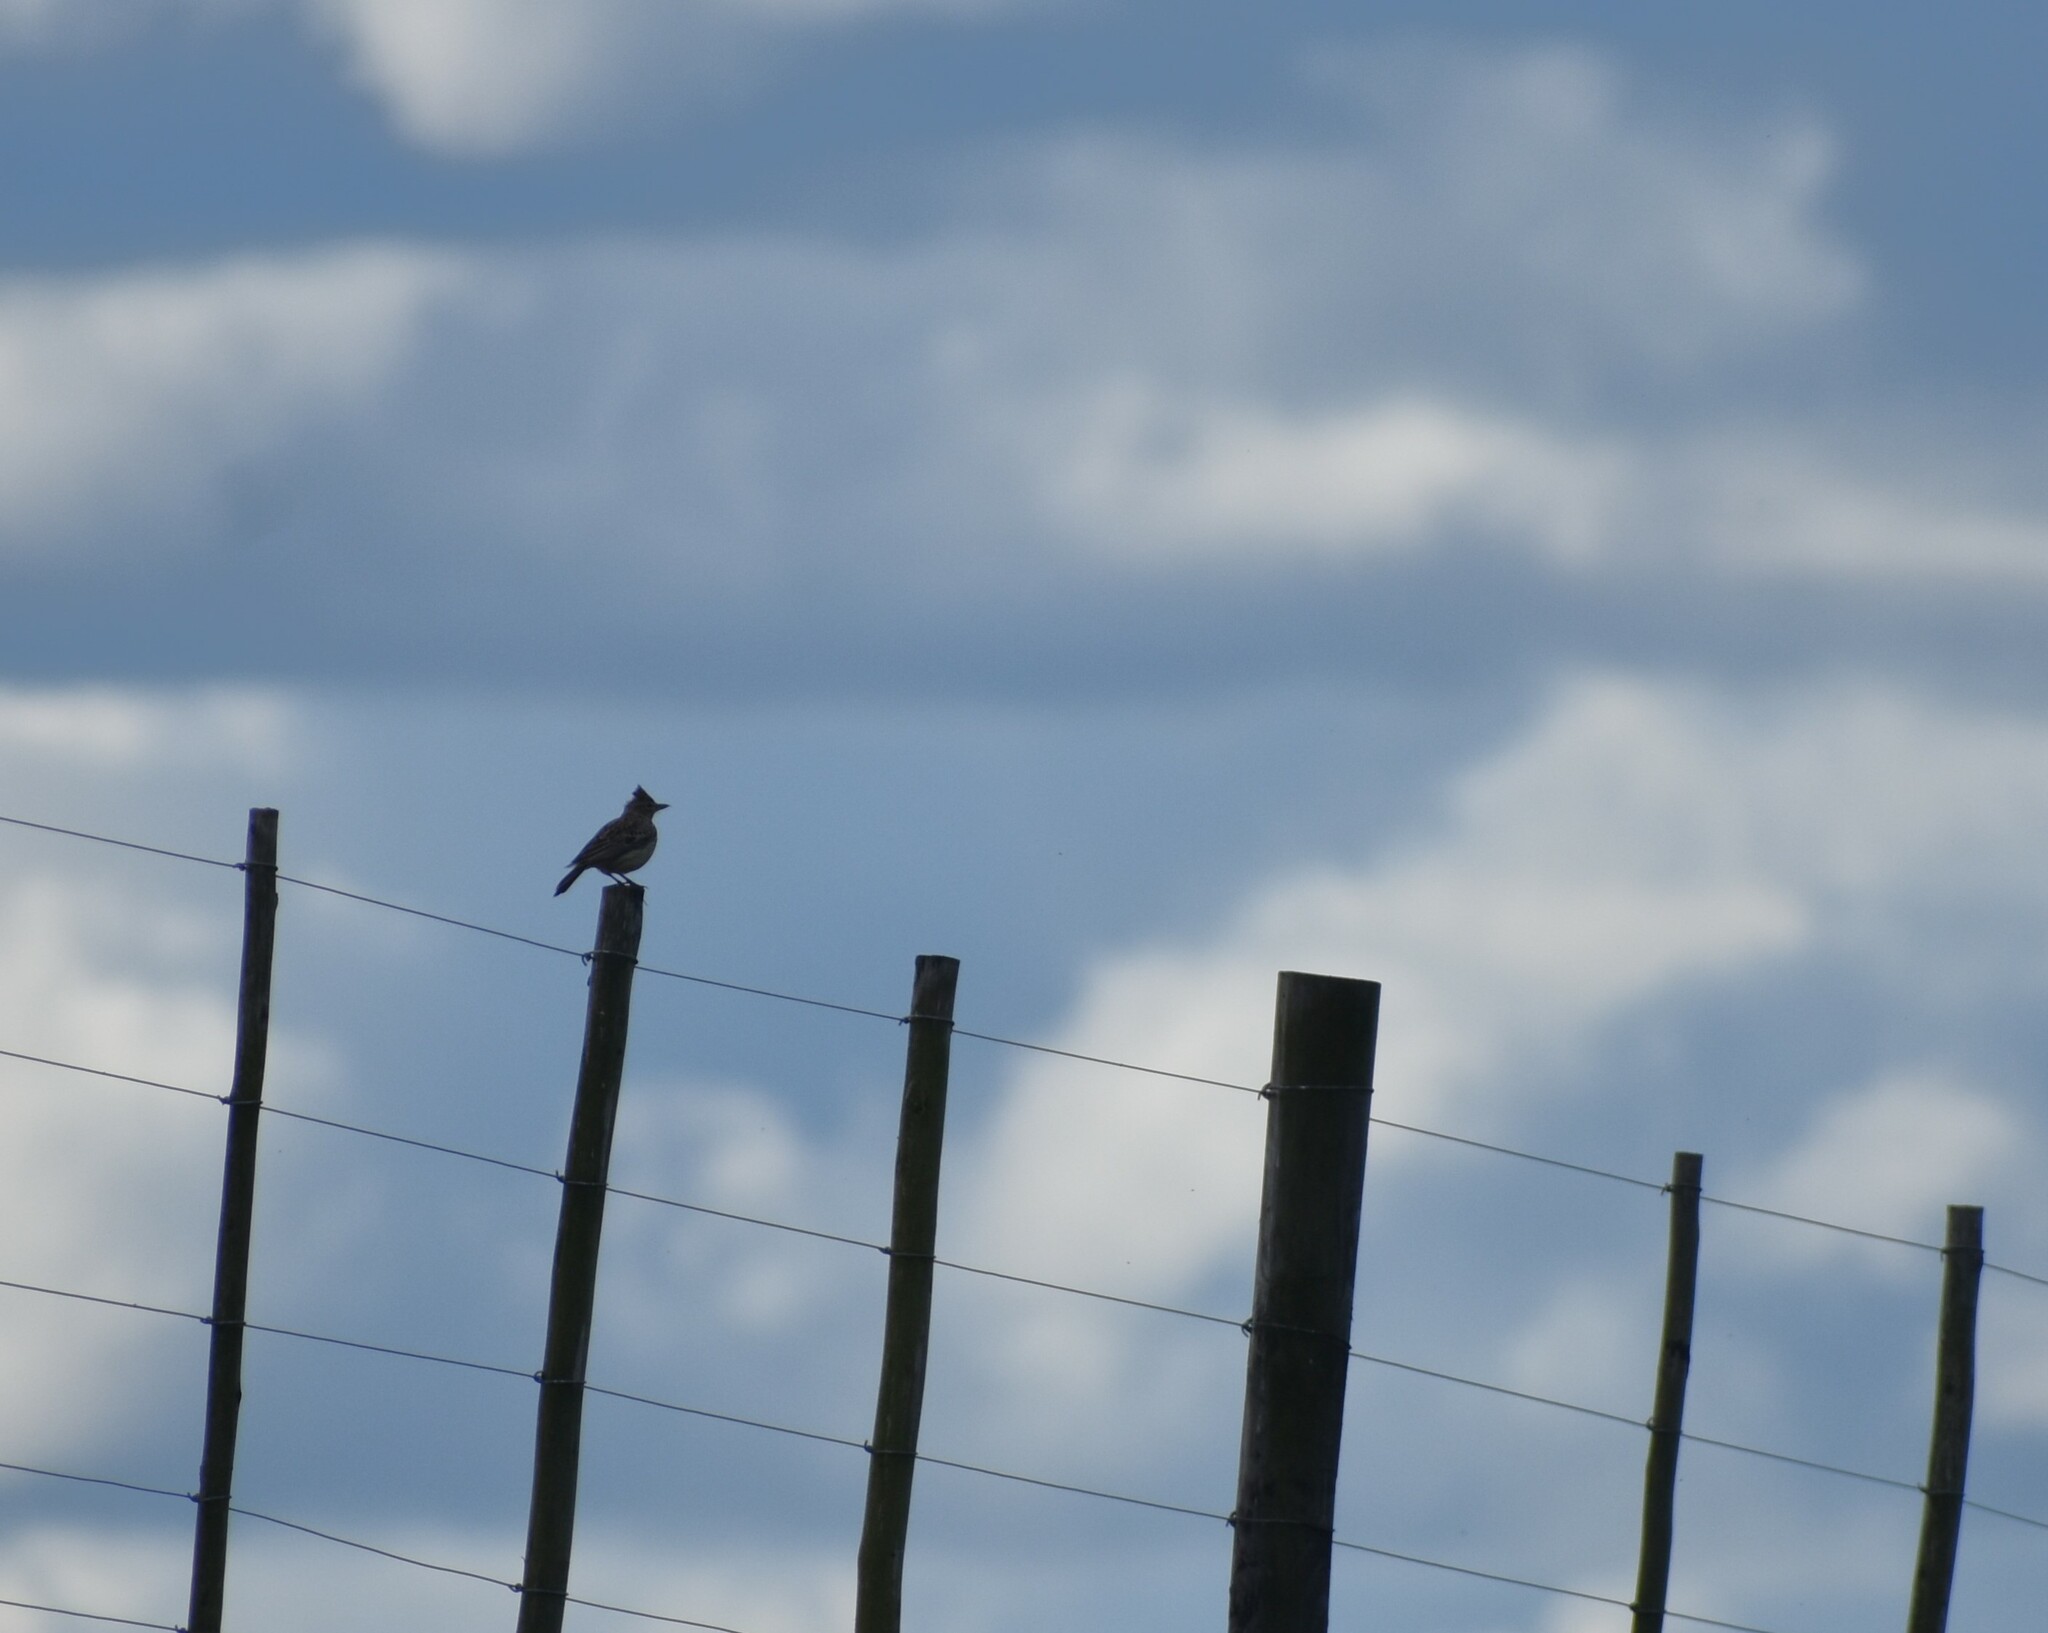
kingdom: Animalia
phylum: Chordata
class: Aves
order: Passeriformes
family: Alaudidae
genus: Galerida
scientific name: Galerida magnirostris
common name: Large-billed lark
